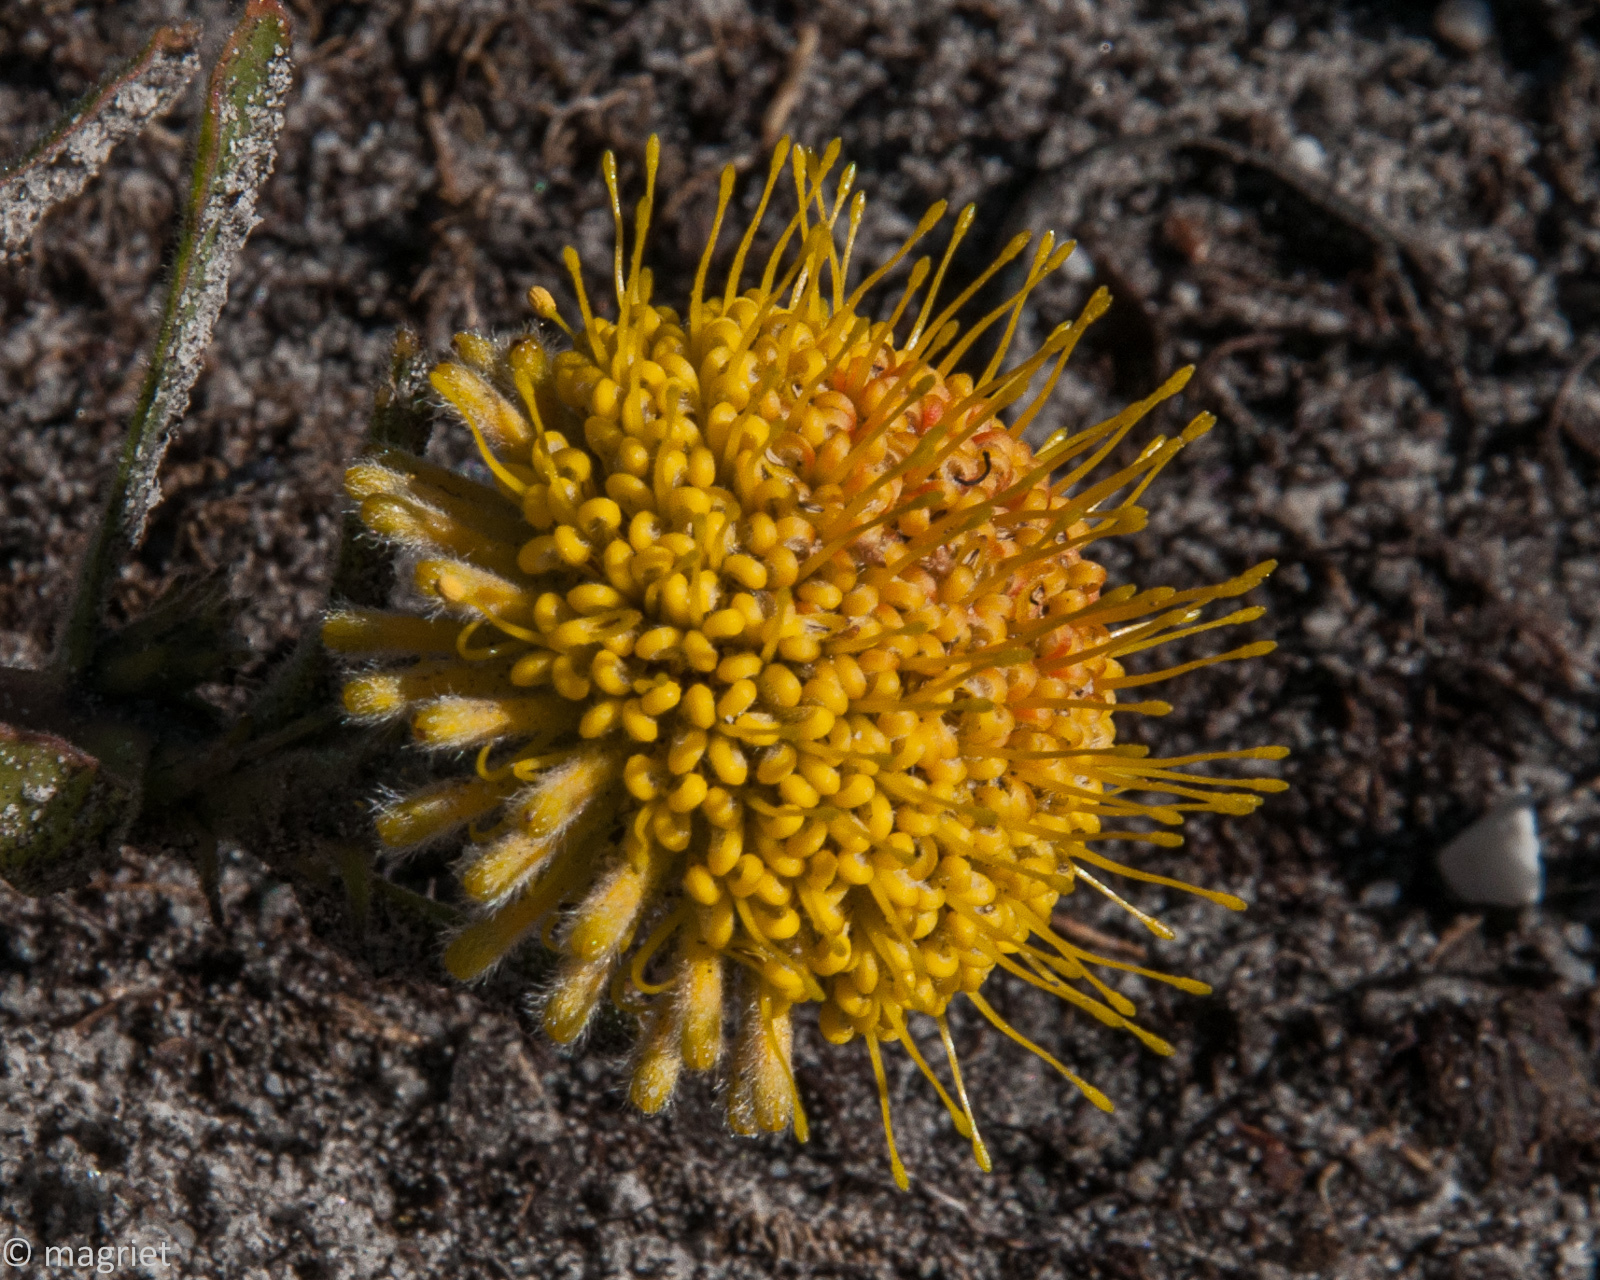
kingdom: Plantae
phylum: Tracheophyta
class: Magnoliopsida
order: Proteales
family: Proteaceae
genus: Leucospermum
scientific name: Leucospermum prostratum
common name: Yellow-trailing pincushion
